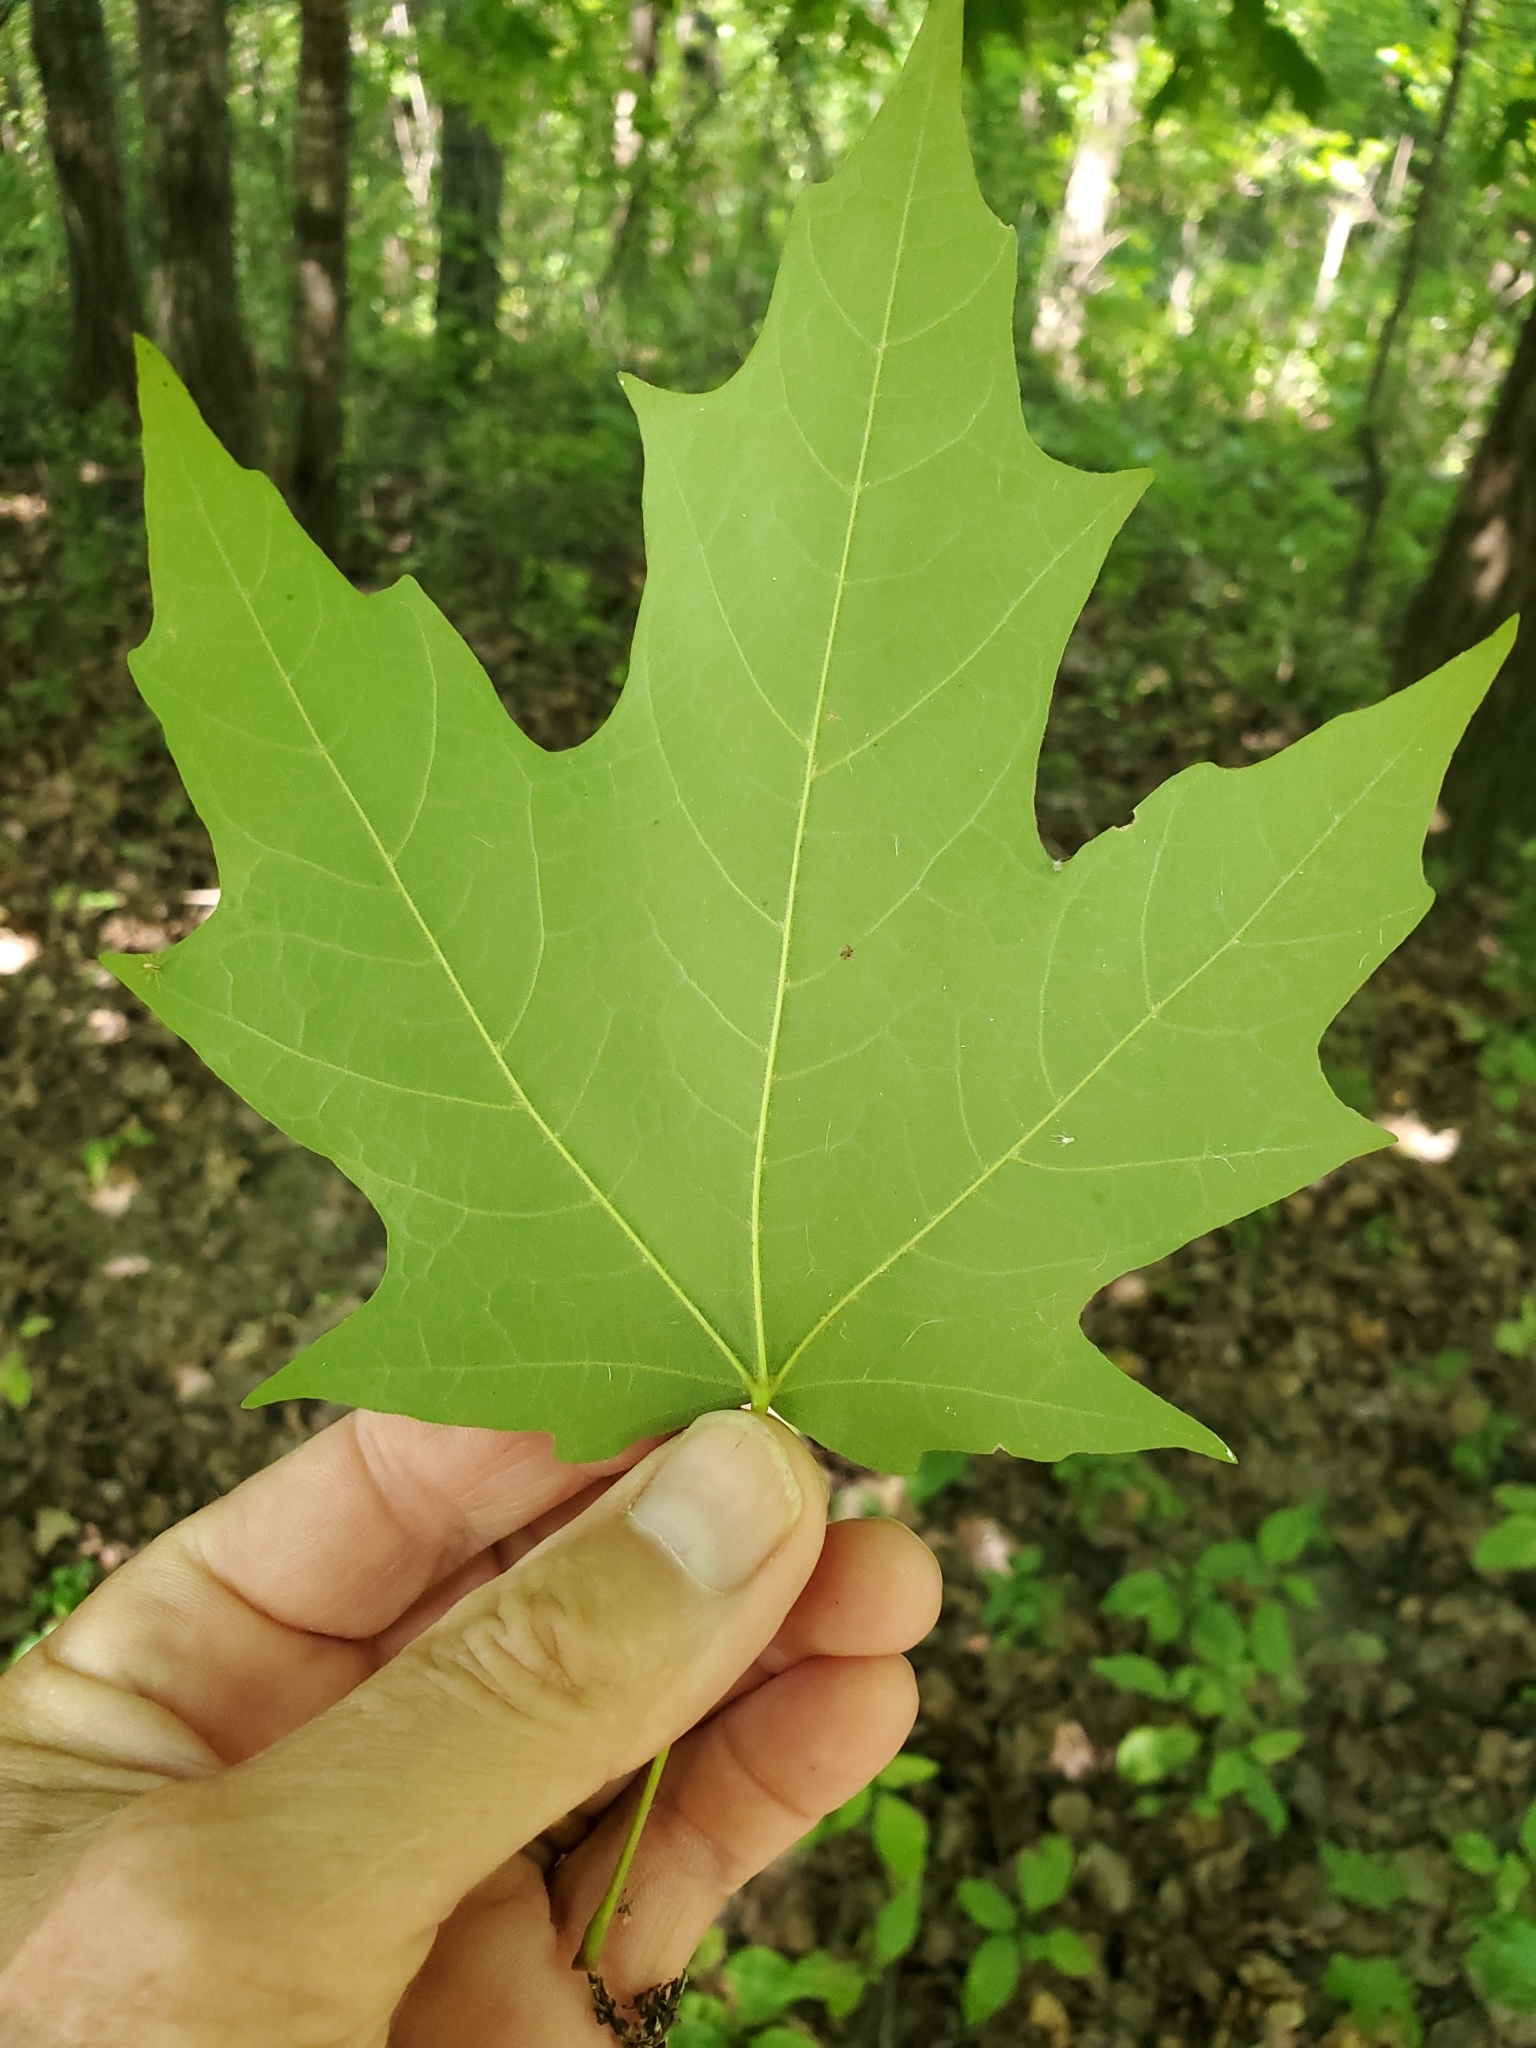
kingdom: Plantae
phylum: Tracheophyta
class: Magnoliopsida
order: Sapindales
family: Sapindaceae
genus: Acer
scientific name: Acer saccharum
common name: Sugar maple
